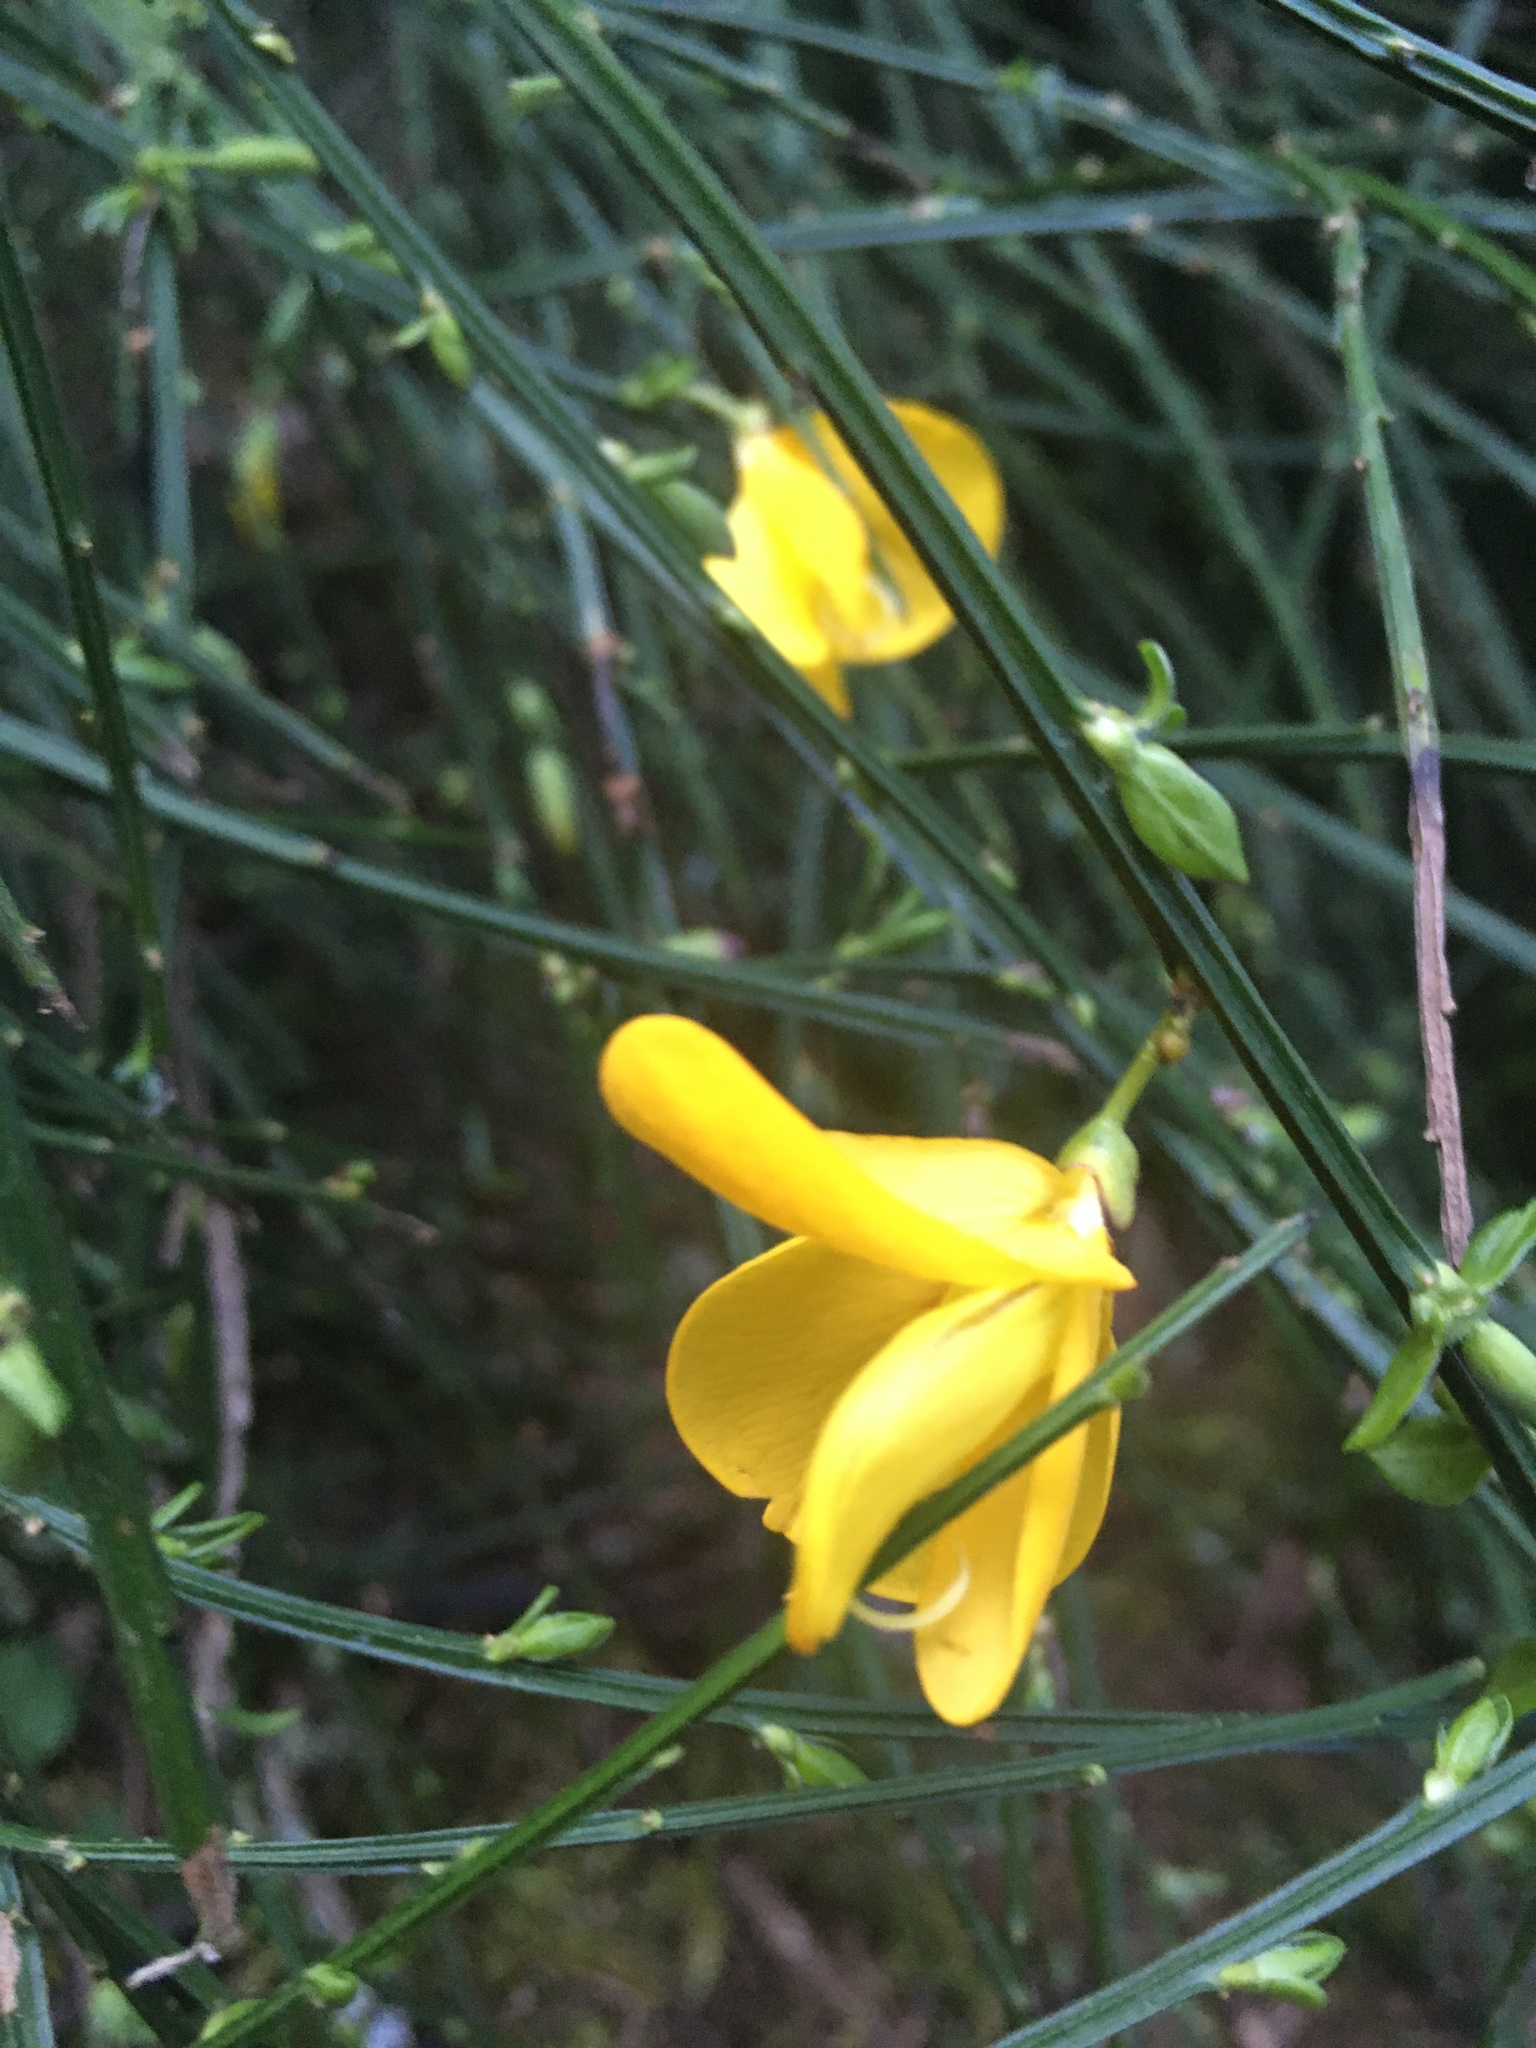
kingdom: Plantae
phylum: Tracheophyta
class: Magnoliopsida
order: Fabales
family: Fabaceae
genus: Cytisus
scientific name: Cytisus scoparius
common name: Scotch broom
